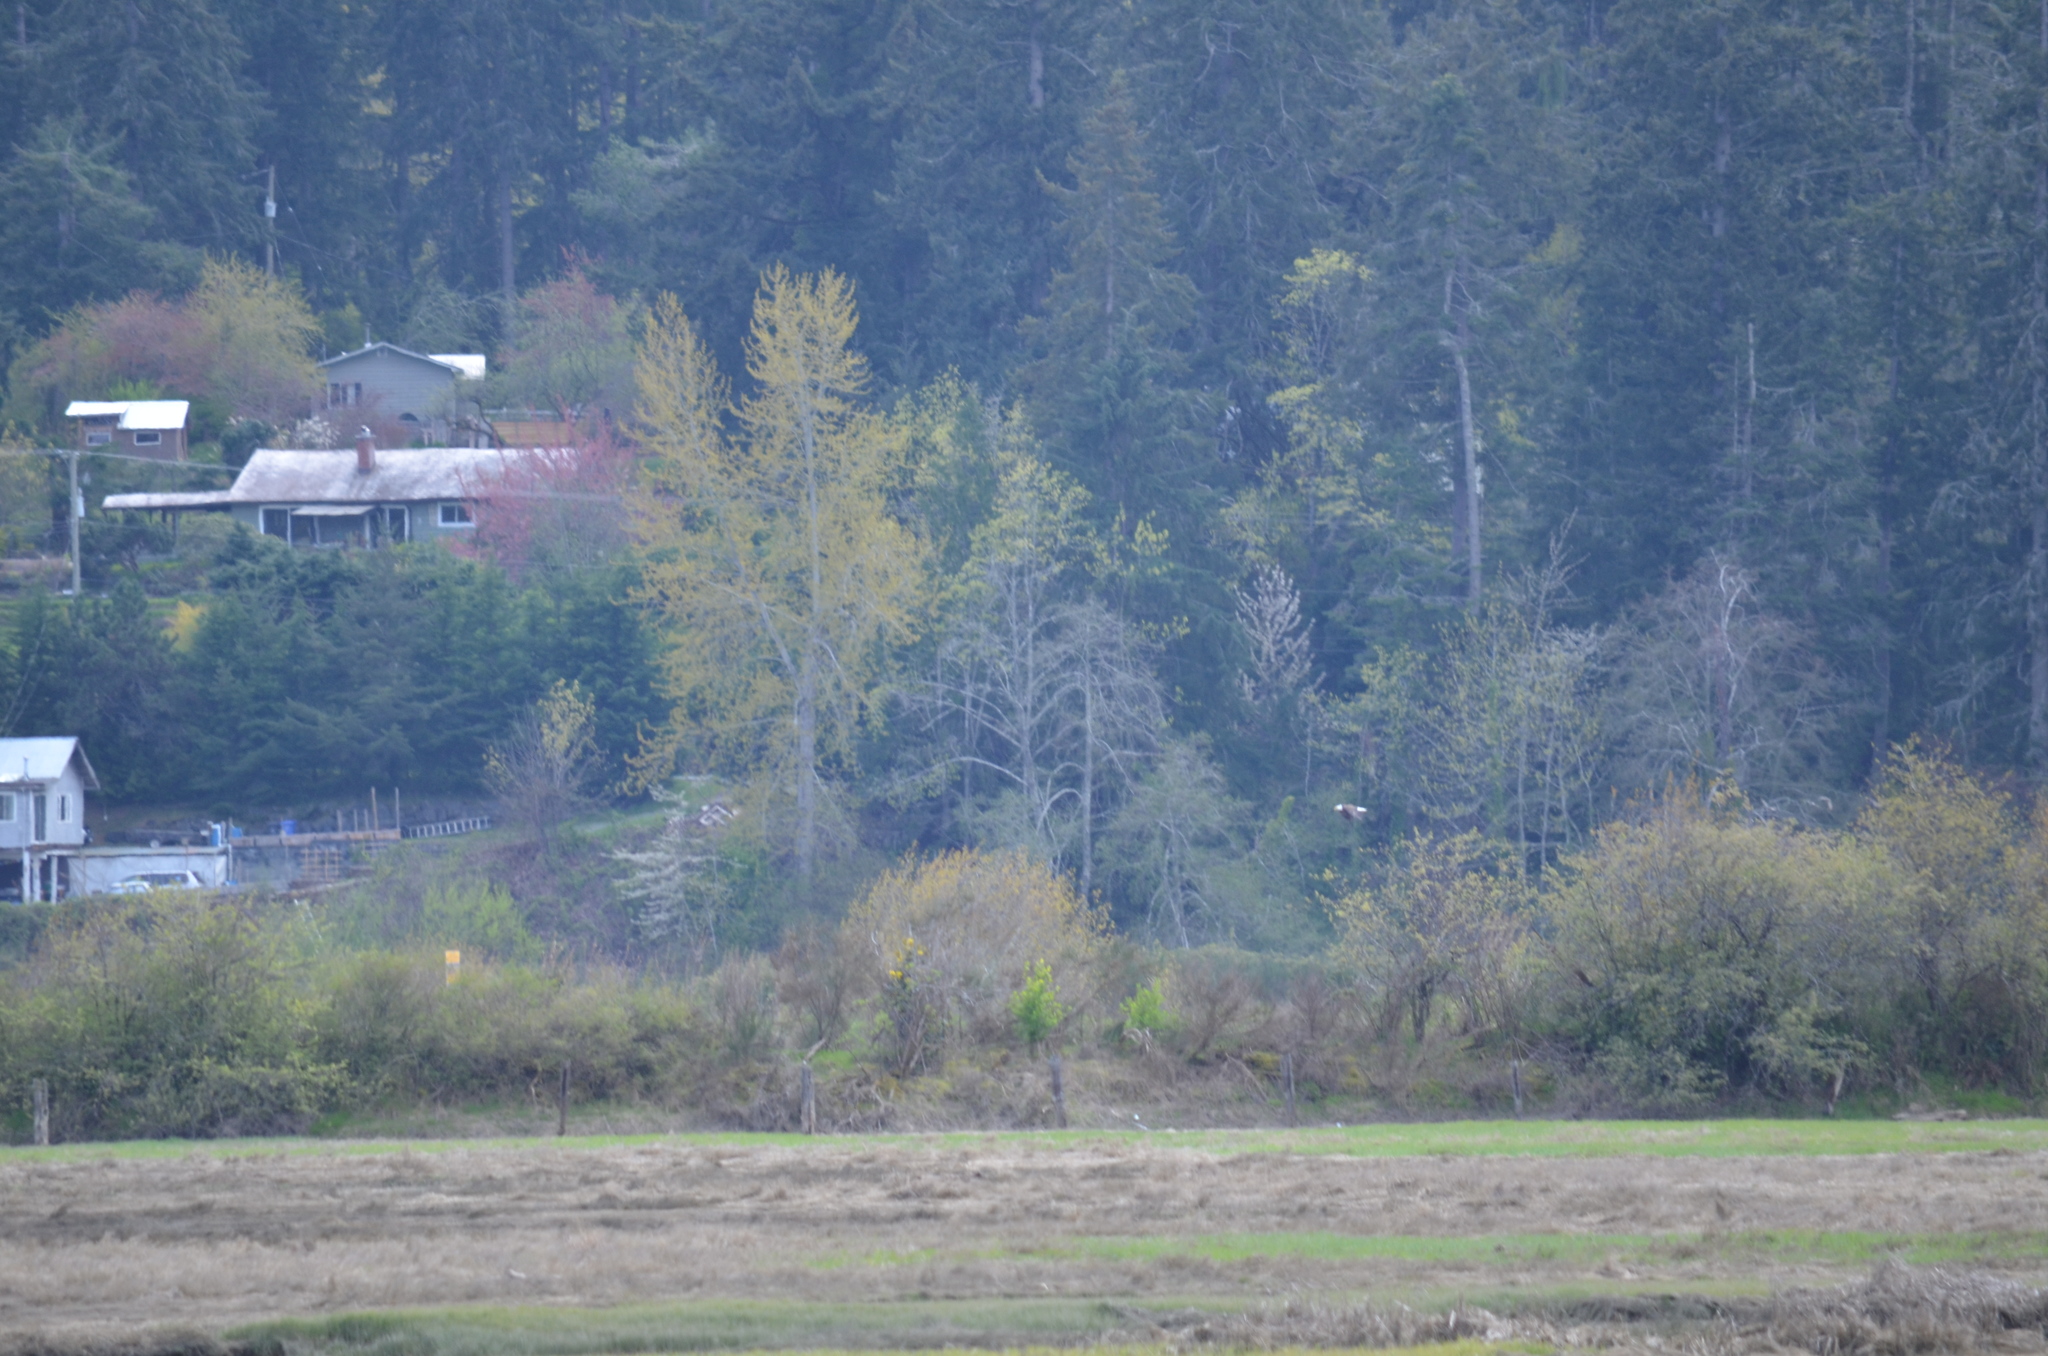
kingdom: Animalia
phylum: Chordata
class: Aves
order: Accipitriformes
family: Accipitridae
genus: Haliaeetus
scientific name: Haliaeetus leucocephalus
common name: Bald eagle
